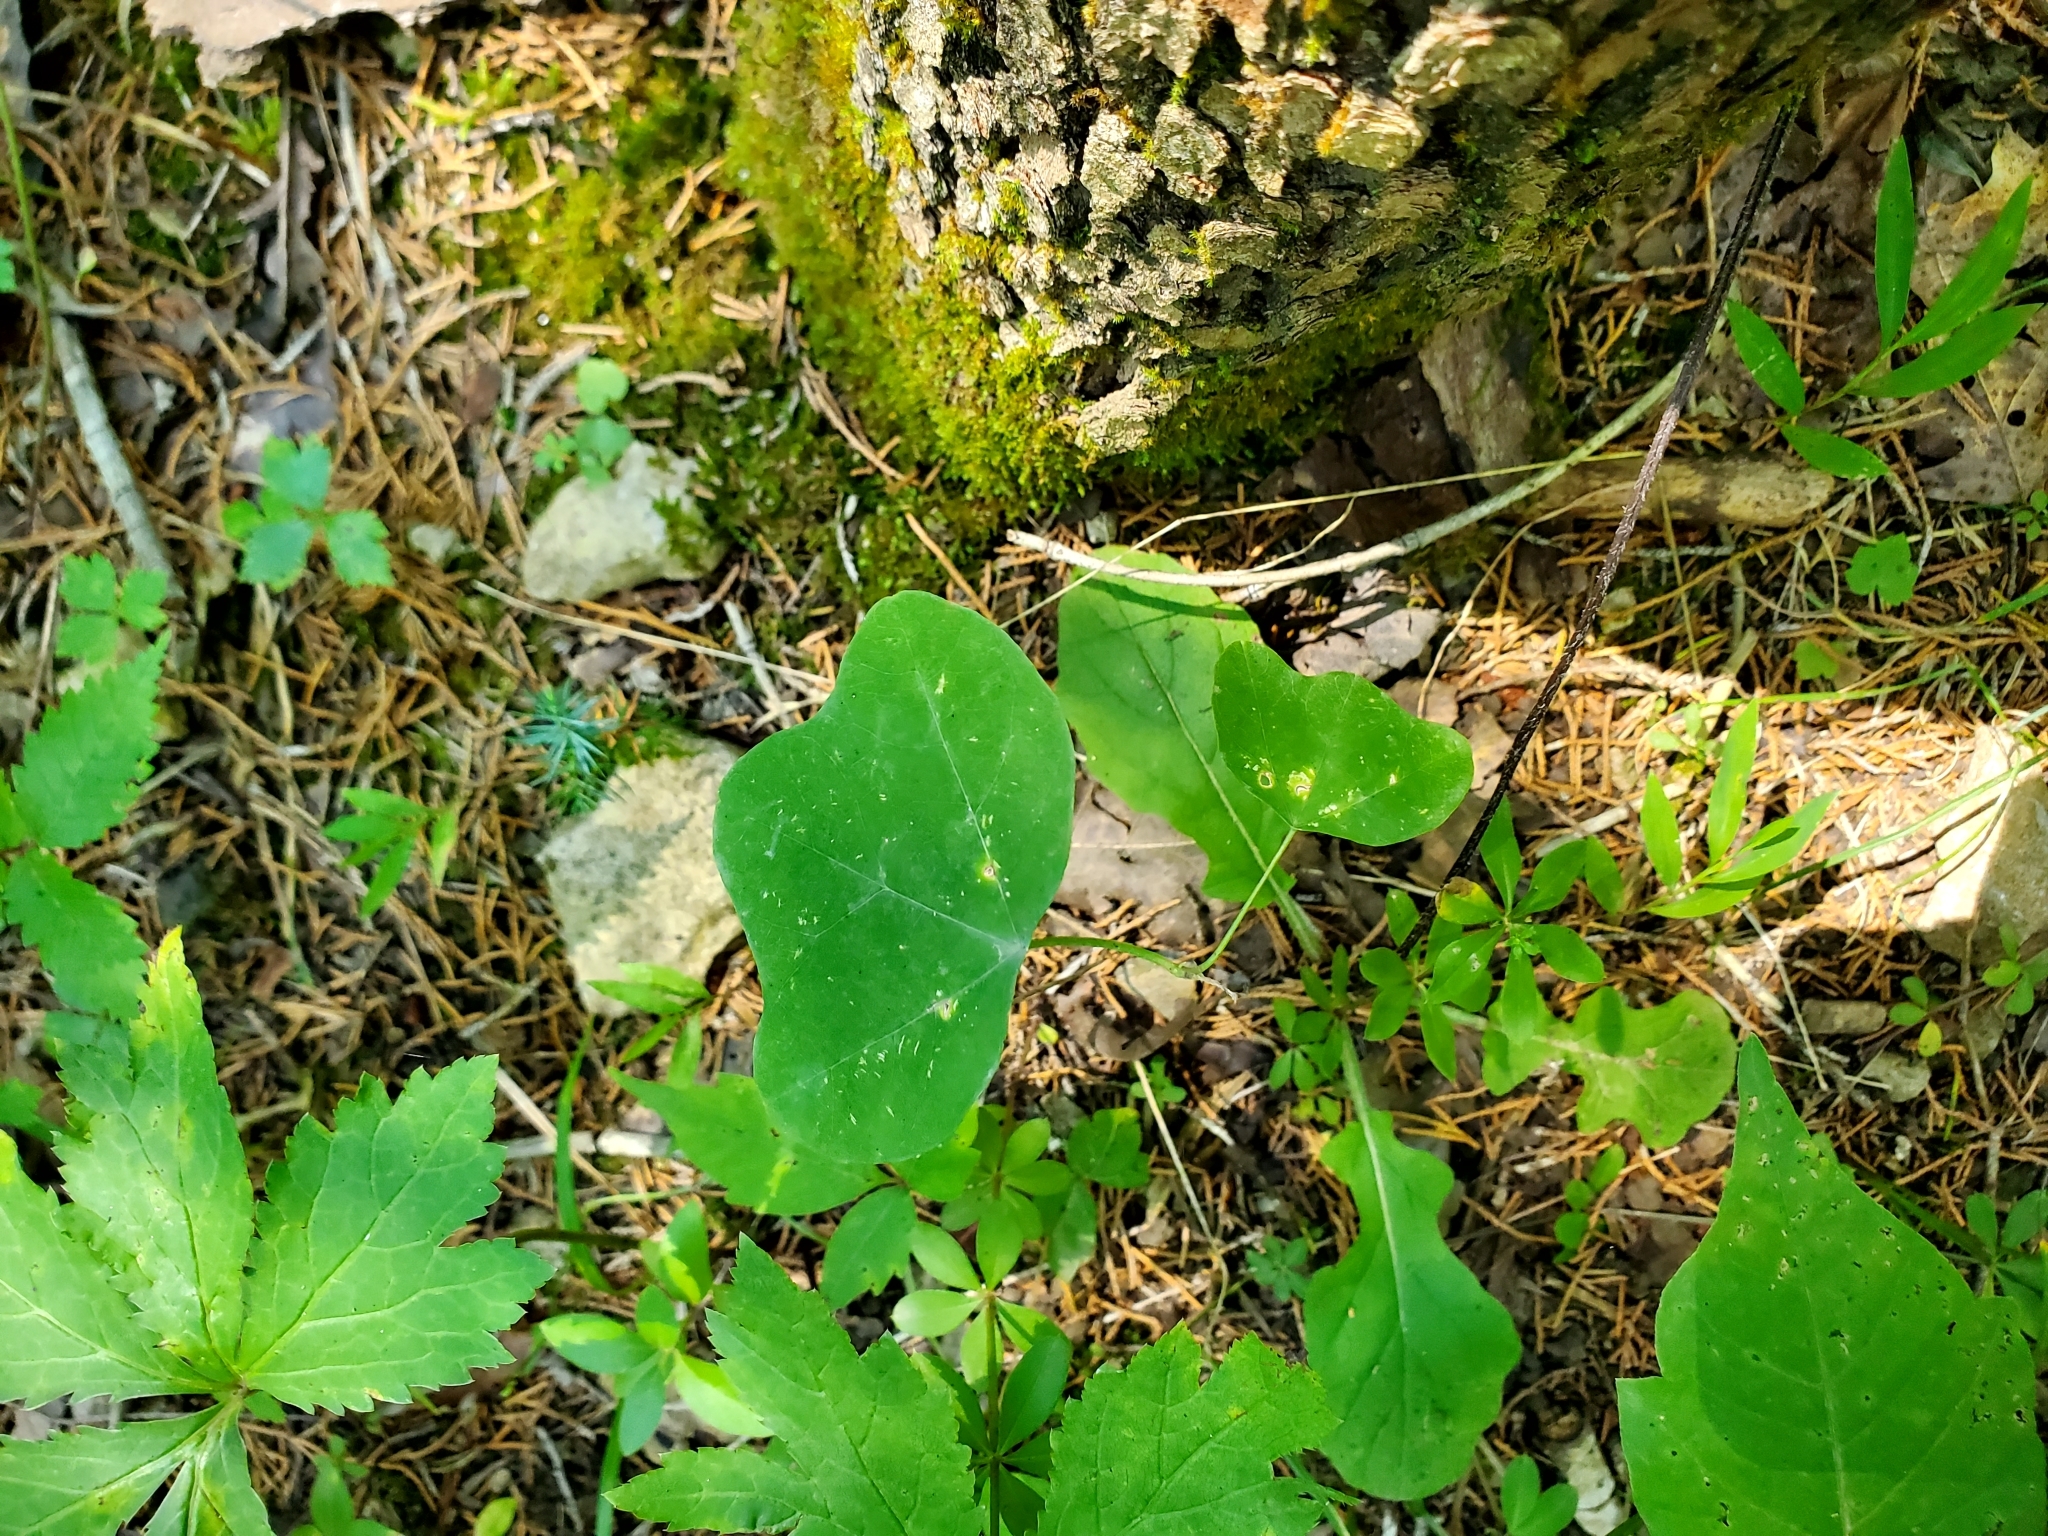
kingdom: Plantae
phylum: Tracheophyta
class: Magnoliopsida
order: Malpighiales
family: Passifloraceae
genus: Passiflora
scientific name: Passiflora lutea
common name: Yellow passionflower
